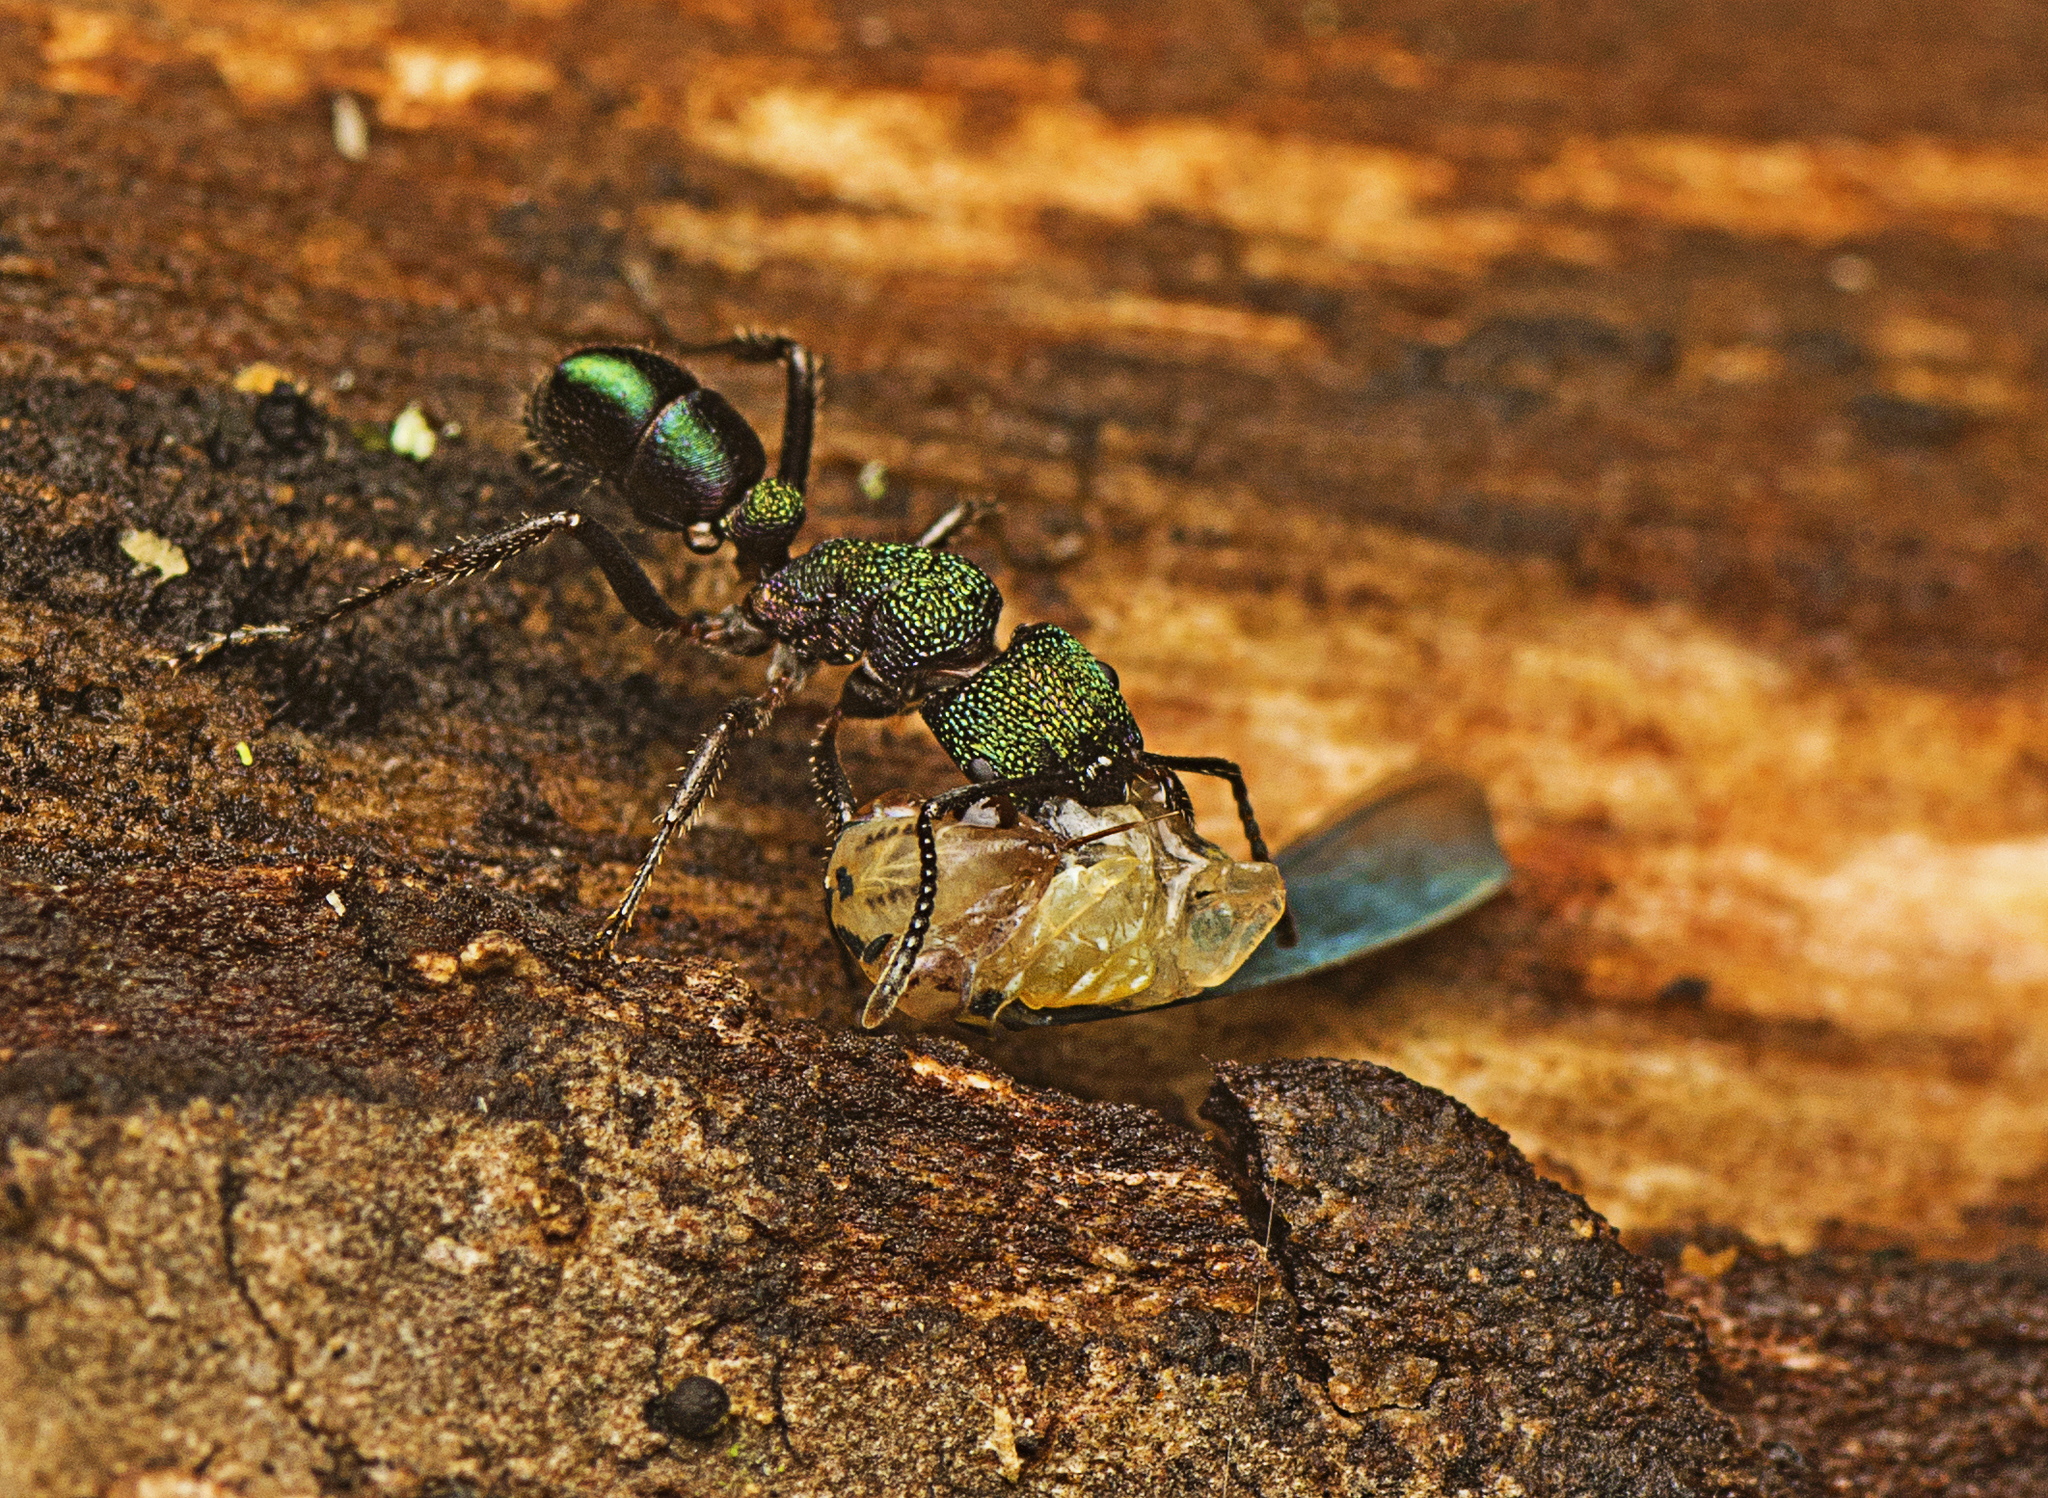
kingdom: Animalia
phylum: Arthropoda
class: Insecta
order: Hymenoptera
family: Formicidae
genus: Rhytidoponera
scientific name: Rhytidoponera metallica
